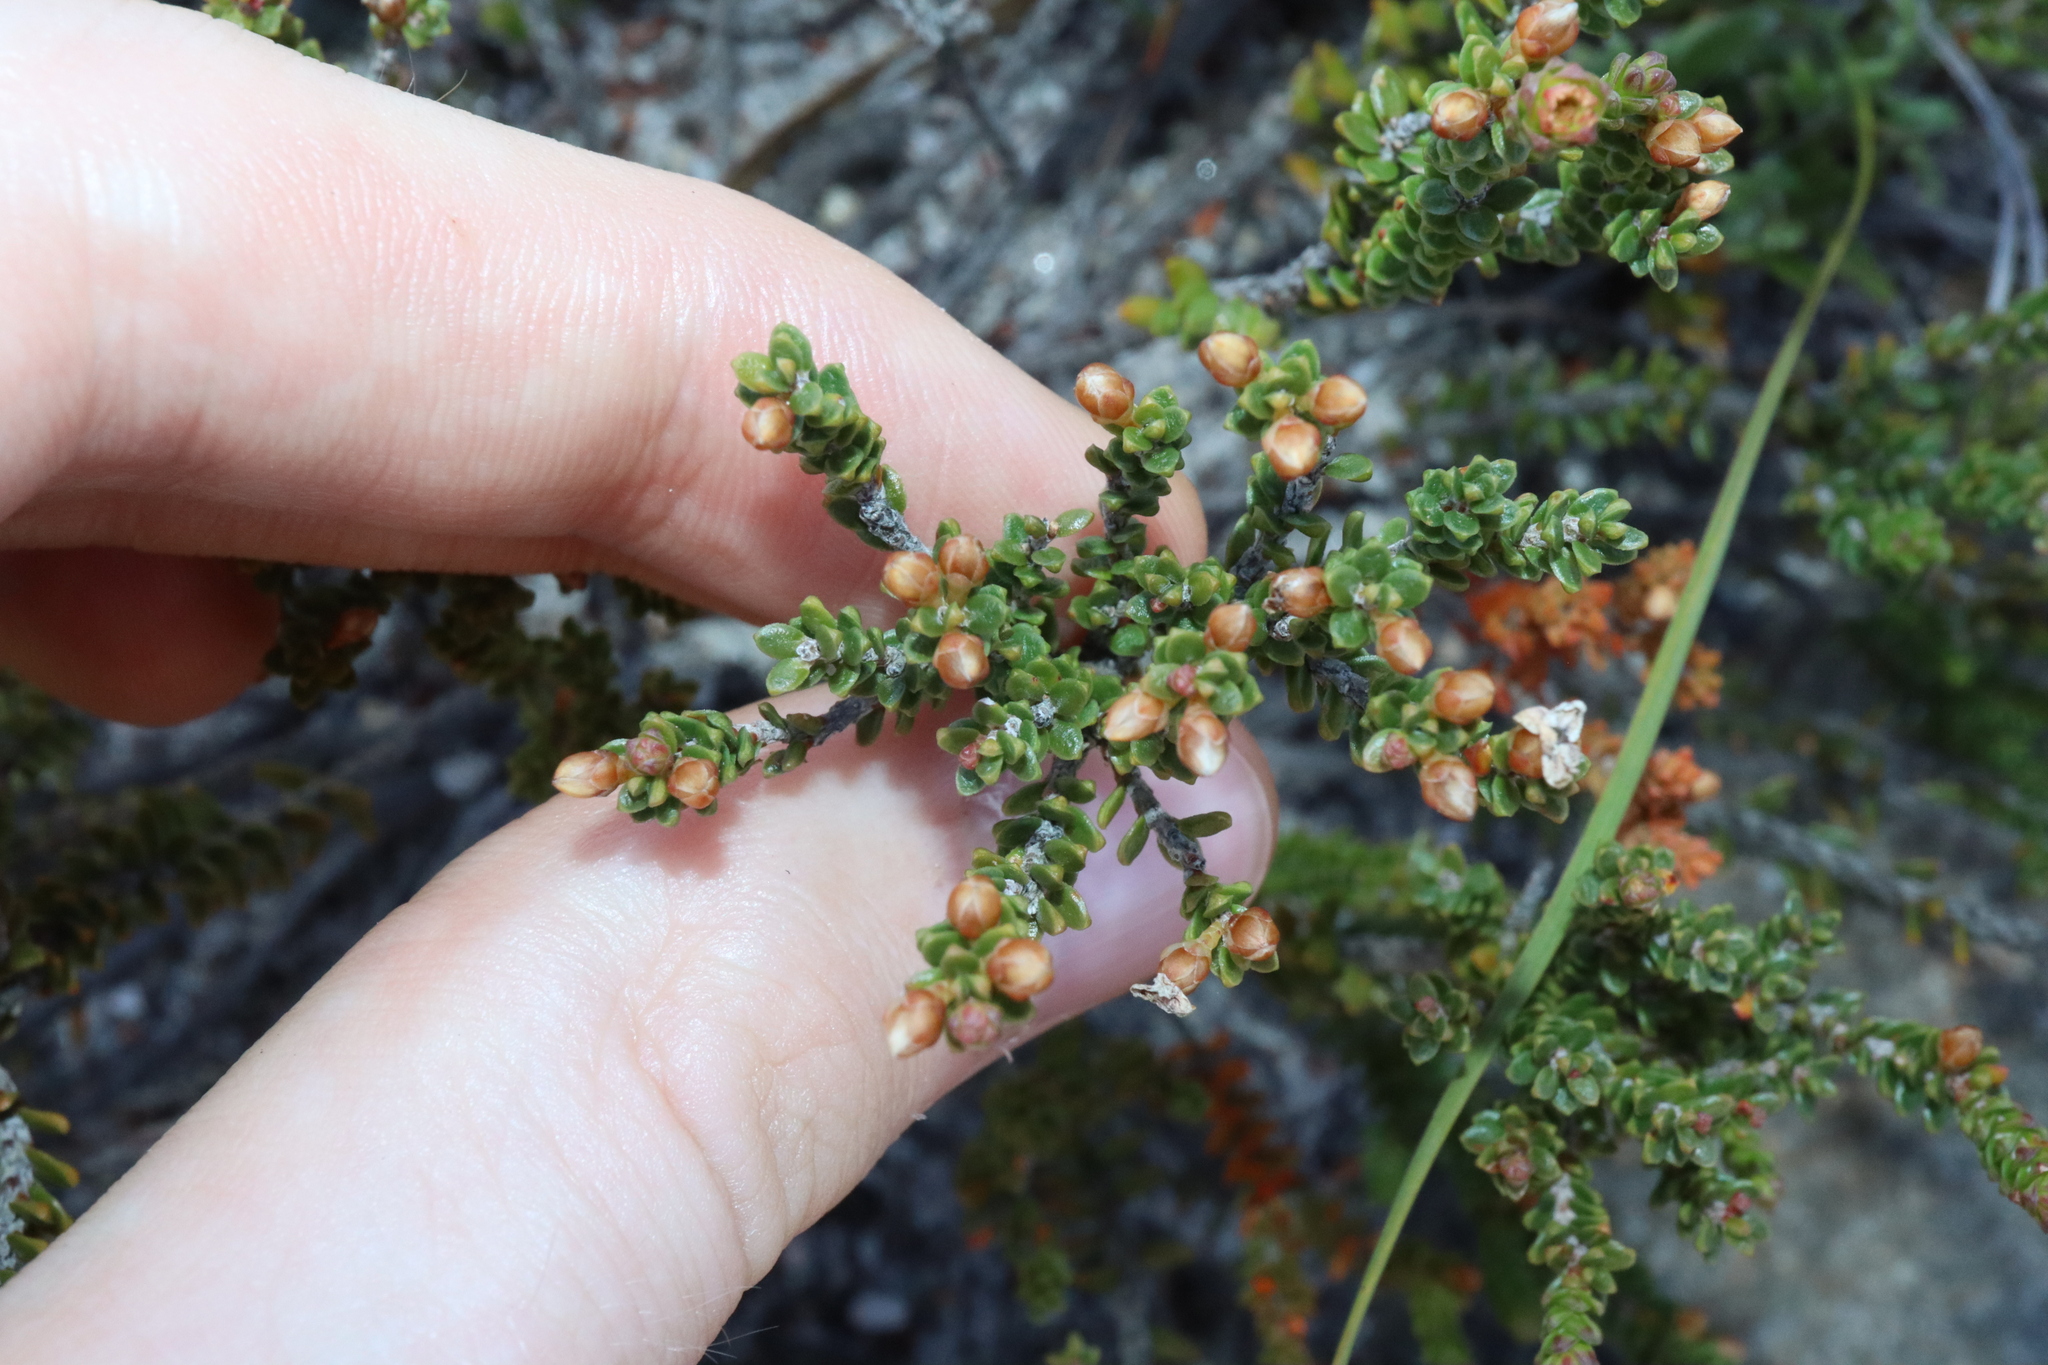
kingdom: Plantae
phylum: Tracheophyta
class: Magnoliopsida
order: Ericales
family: Ericaceae
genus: Epacris
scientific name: Epacris rigida
